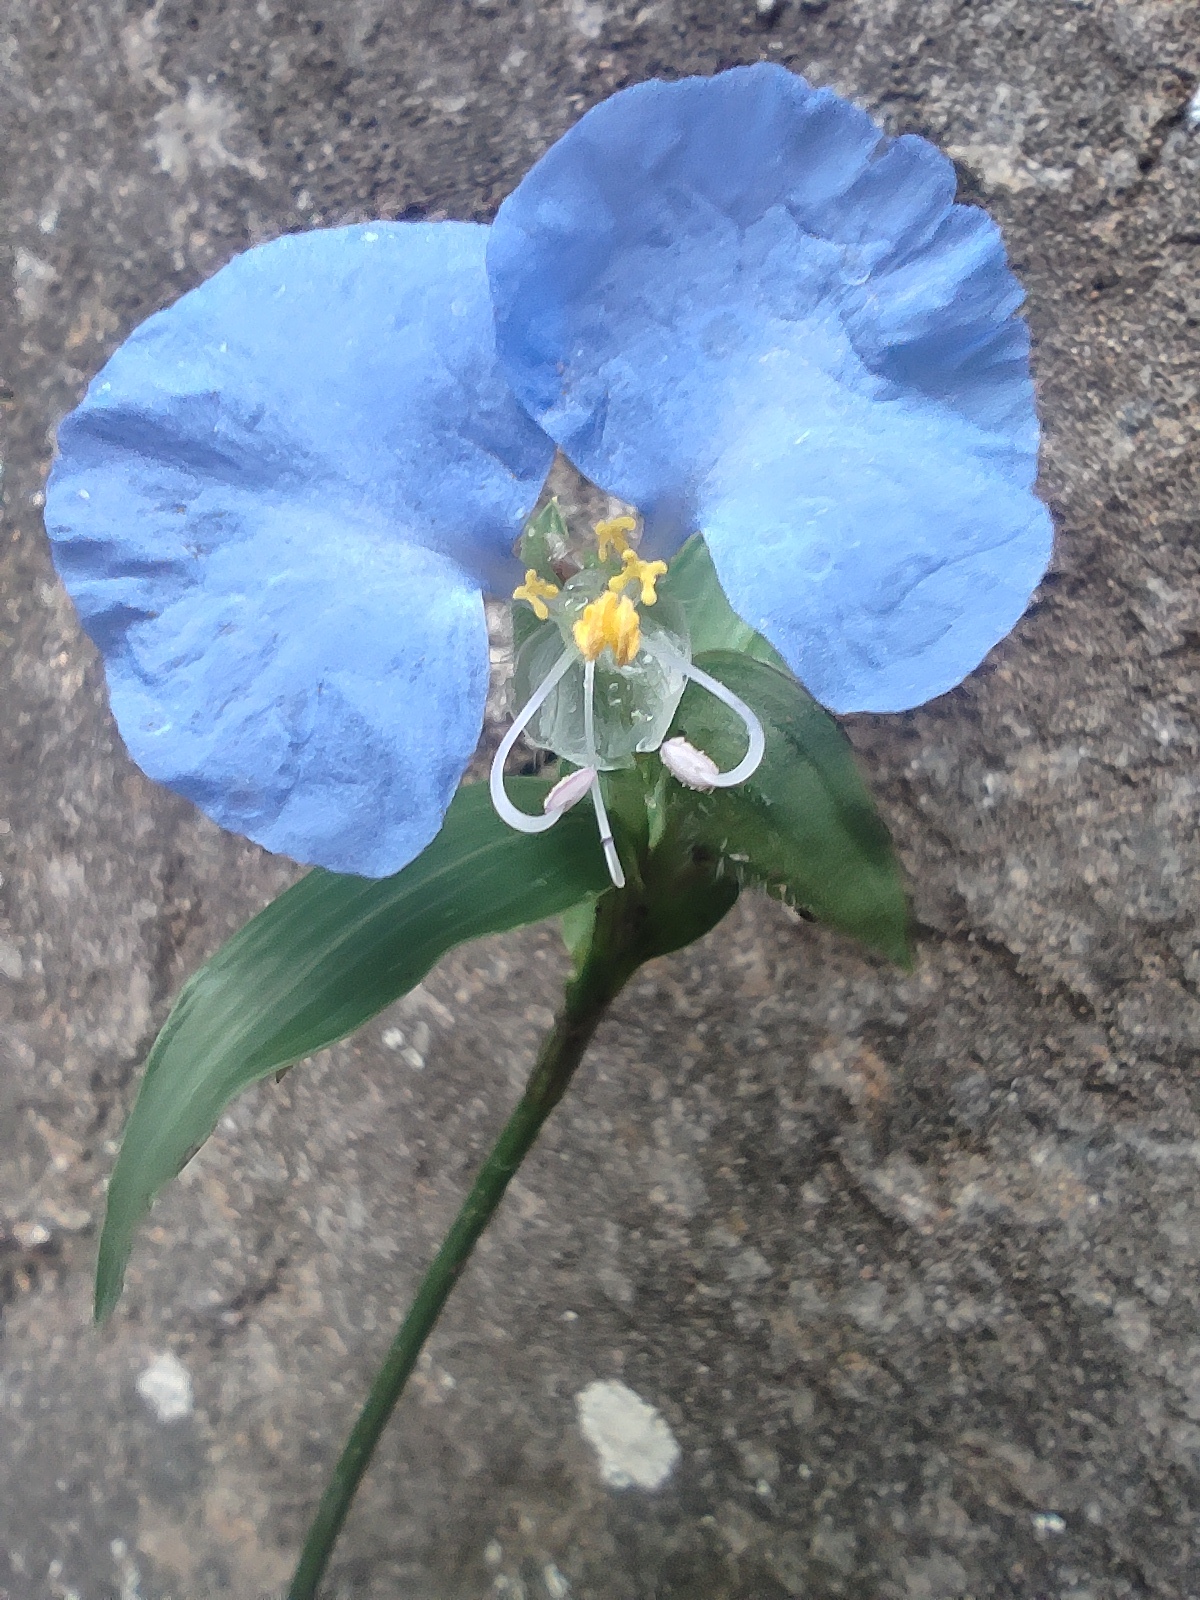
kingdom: Plantae
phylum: Tracheophyta
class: Liliopsida
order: Commelinales
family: Commelinaceae
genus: Commelina
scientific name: Commelina erecta
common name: Blousel blommetjie
